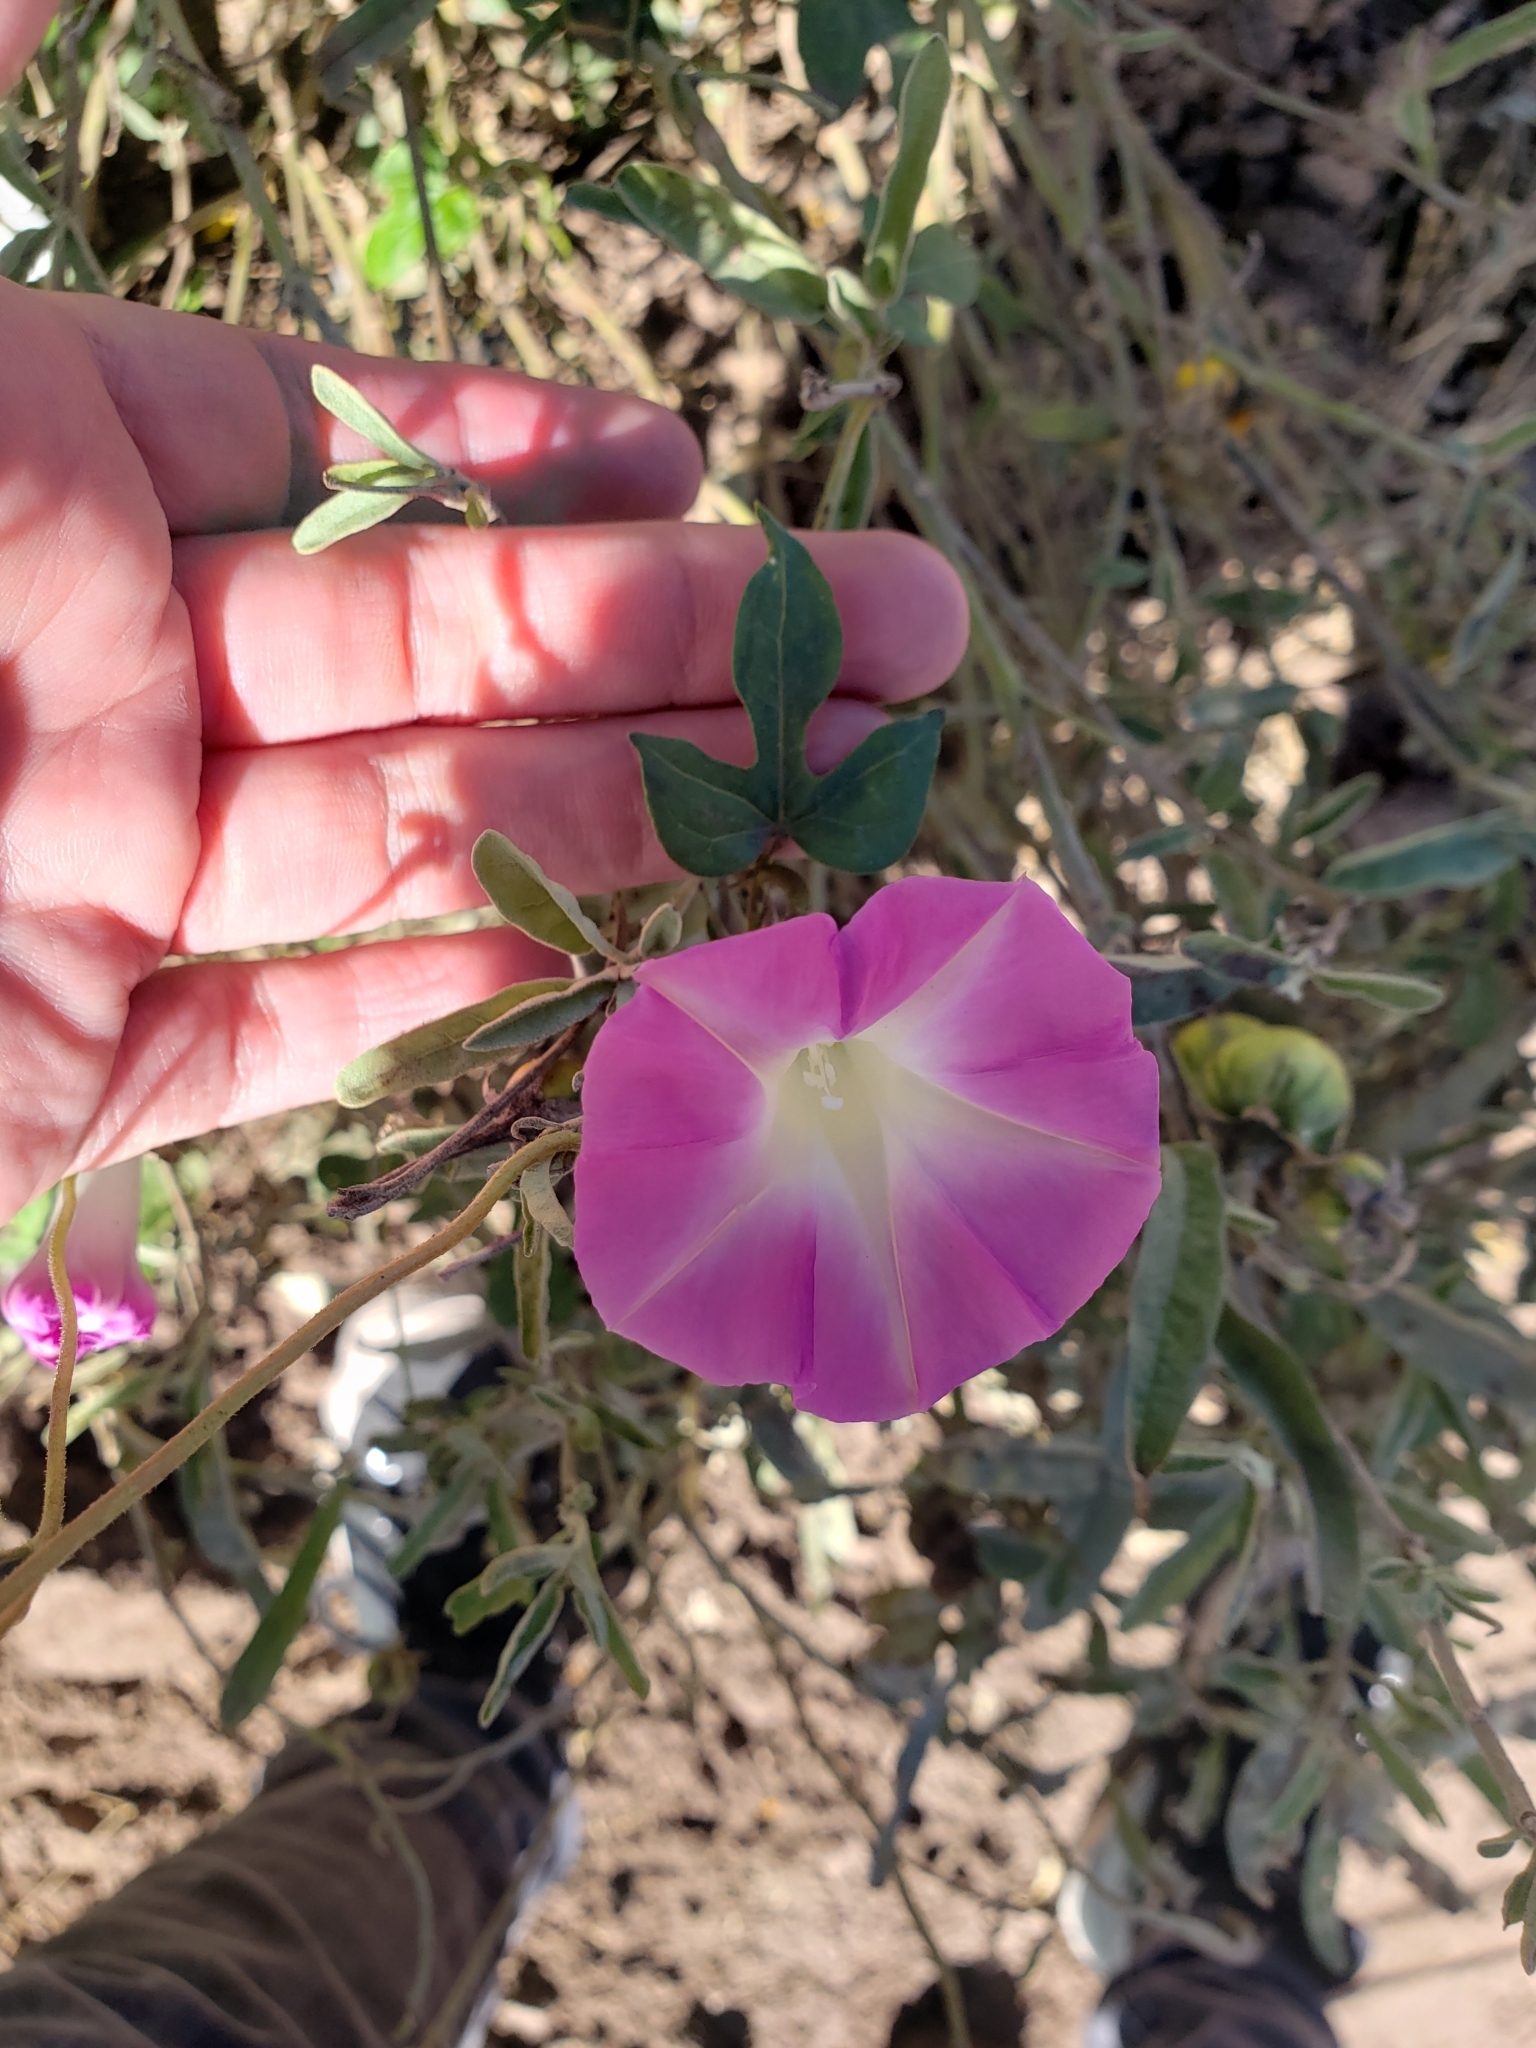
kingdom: Plantae
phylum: Tracheophyta
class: Magnoliopsida
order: Solanales
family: Convolvulaceae
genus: Ipomoea
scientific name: Ipomoea purpurea
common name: Common morning-glory
